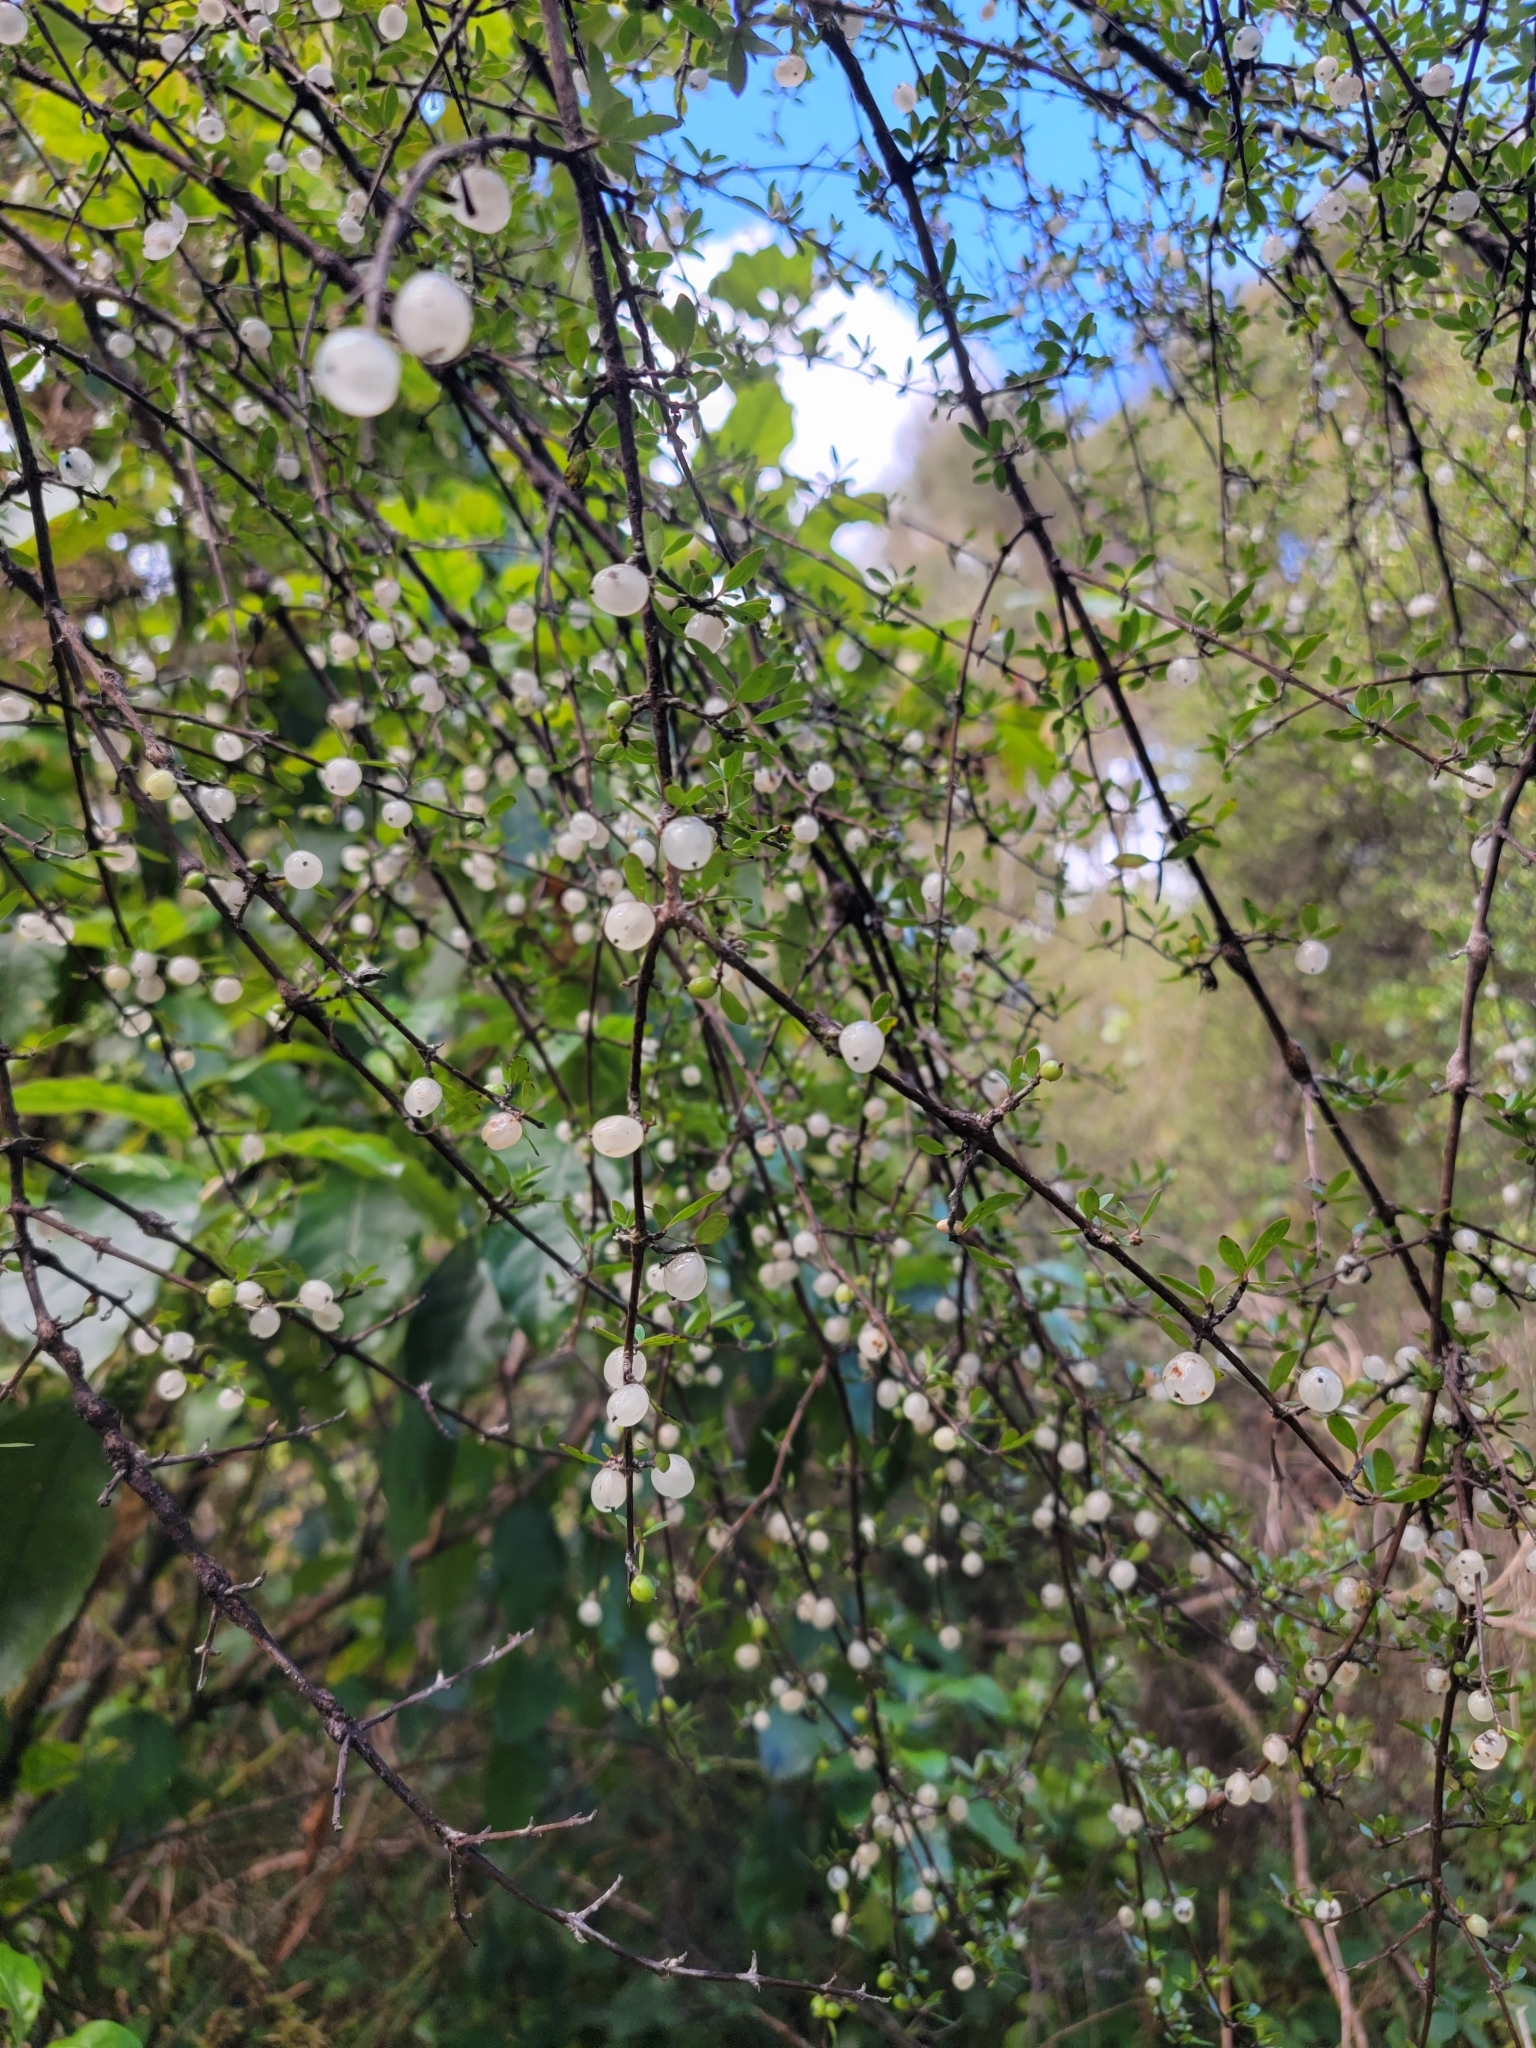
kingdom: Plantae
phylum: Tracheophyta
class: Magnoliopsida
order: Gentianales
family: Rubiaceae
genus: Coprosma
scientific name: Coprosma propinqua
